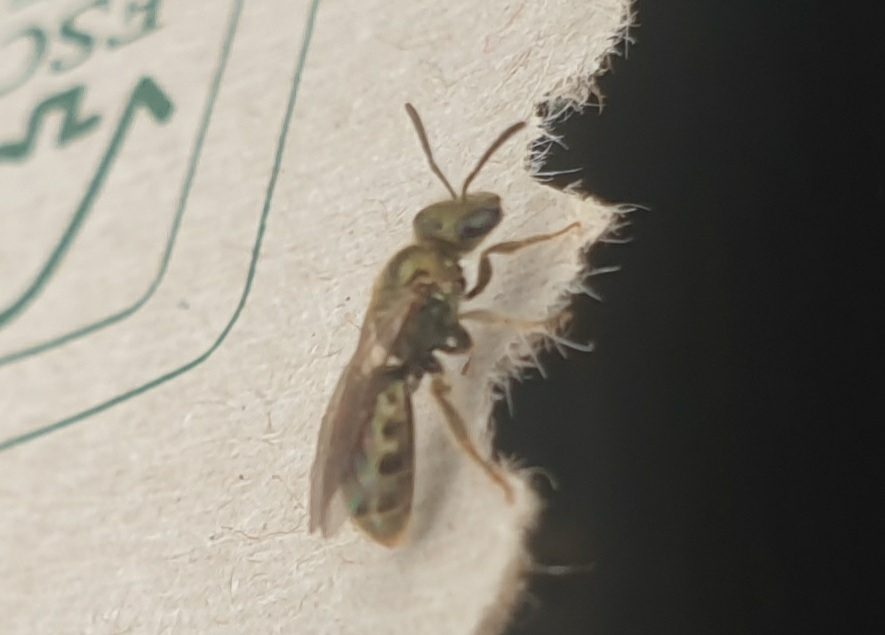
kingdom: Animalia
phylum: Arthropoda
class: Insecta
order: Hymenoptera
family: Halictidae
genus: Dialictus
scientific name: Dialictus
